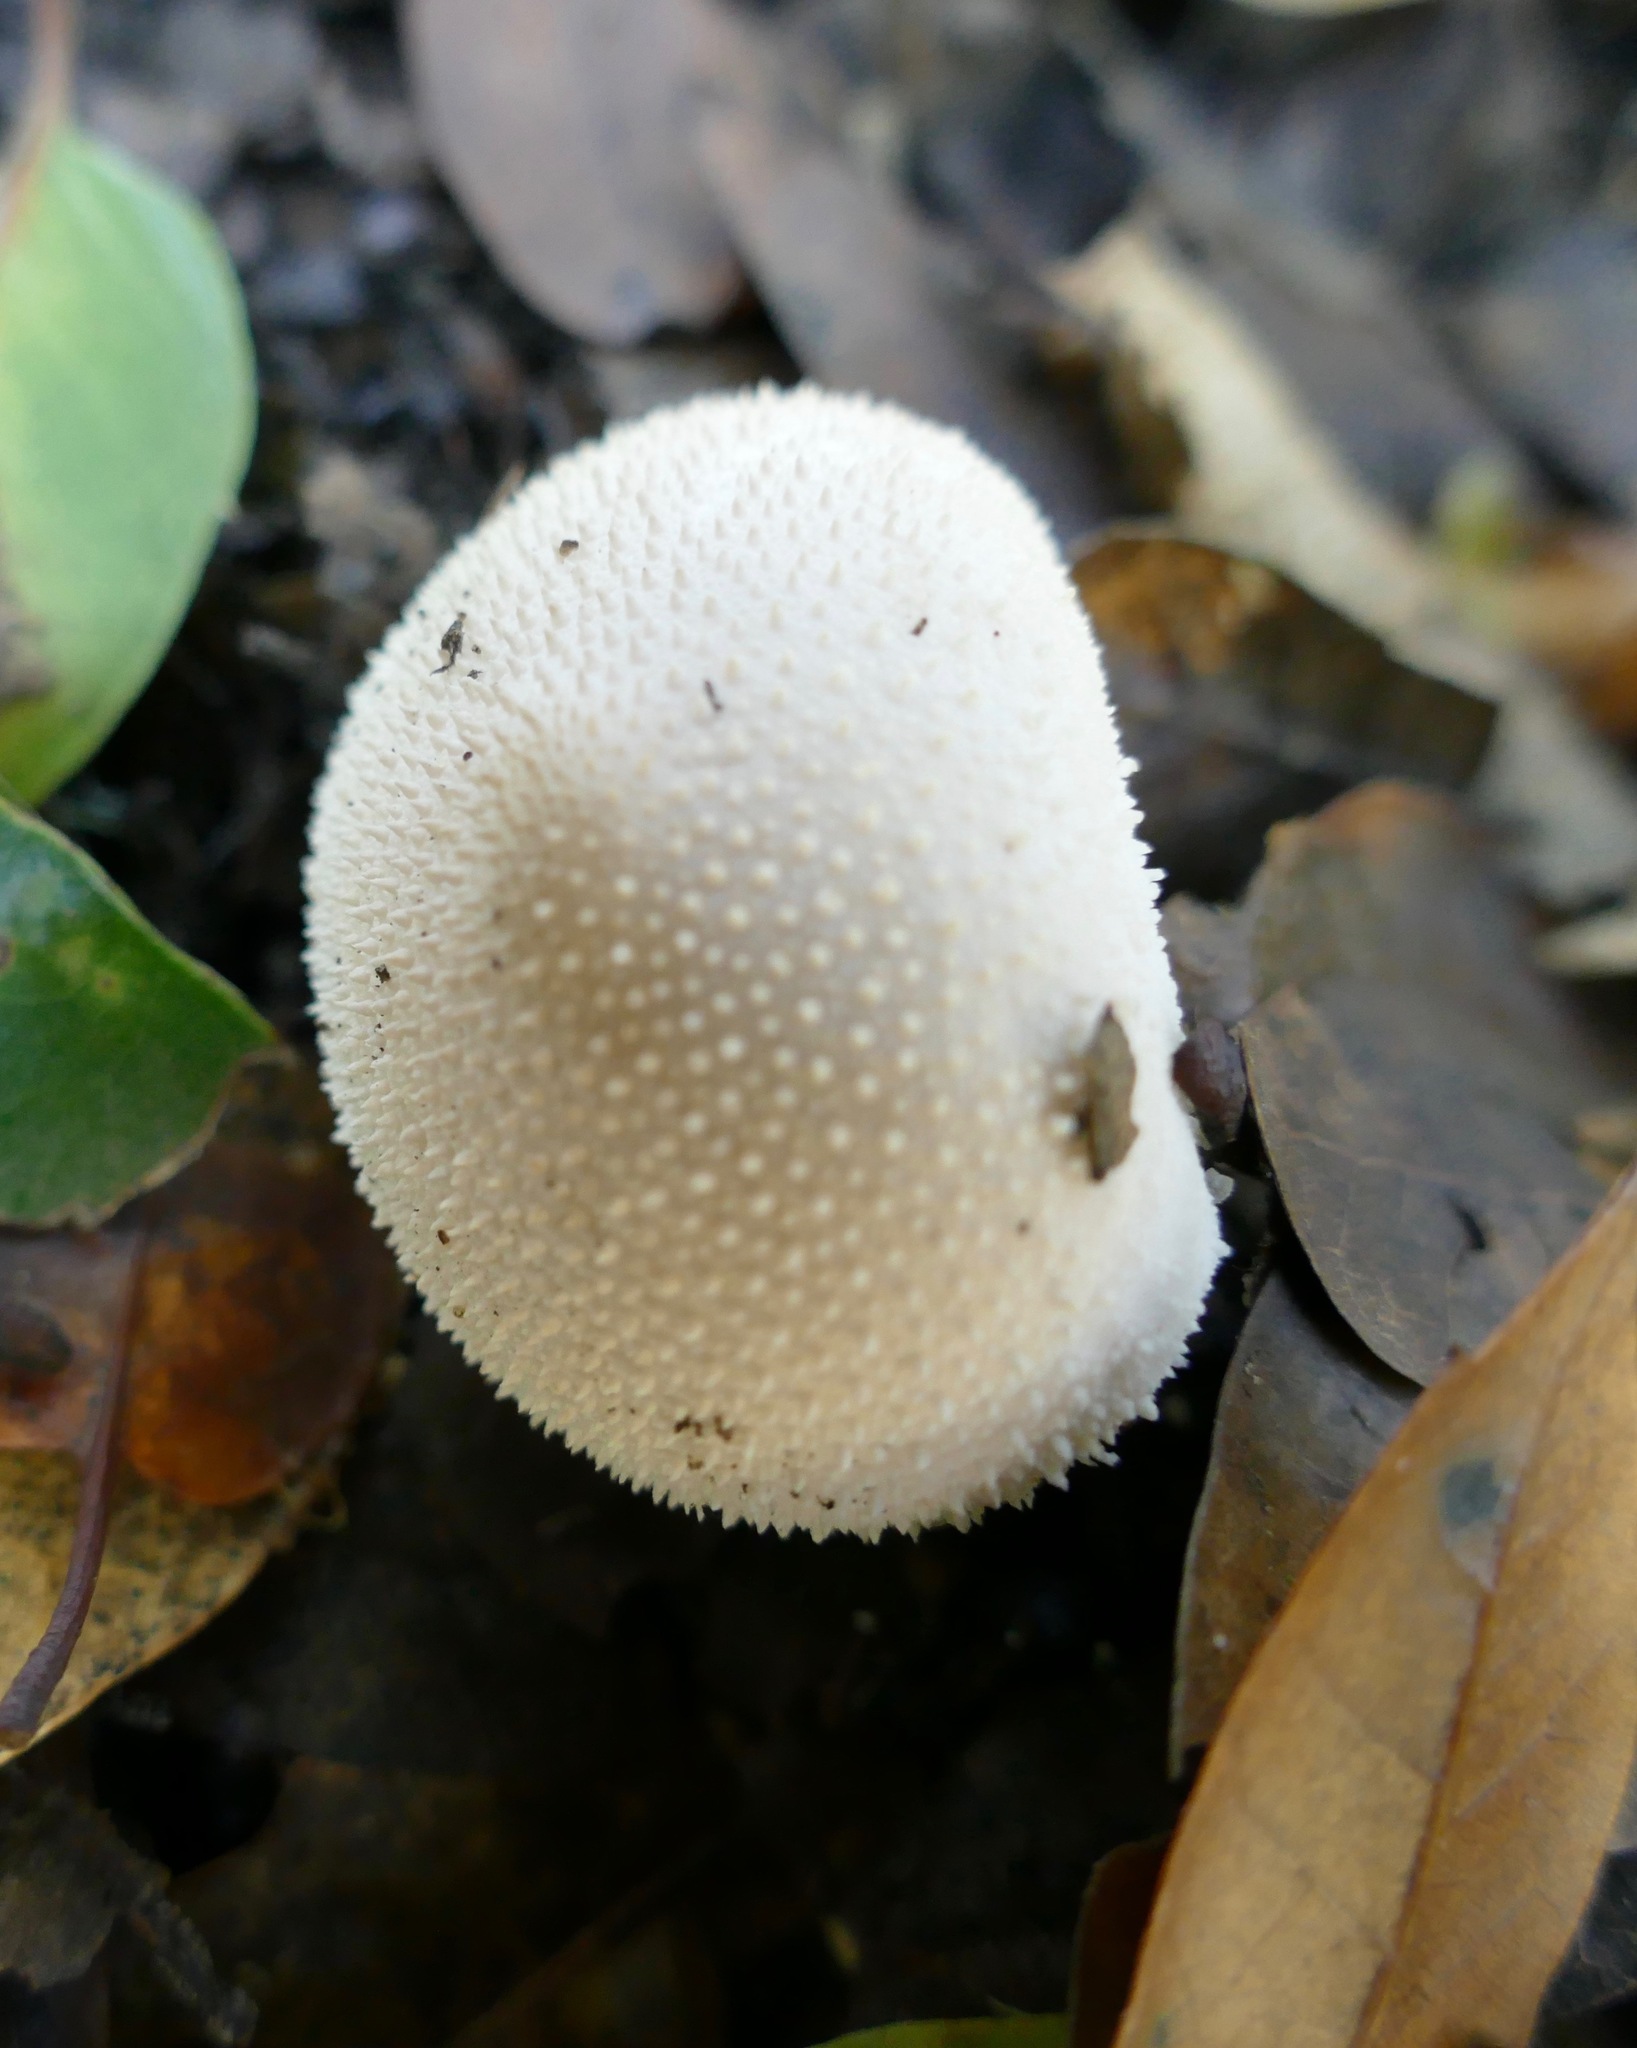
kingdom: Fungi
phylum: Basidiomycota
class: Agaricomycetes
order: Agaricales
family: Lycoperdaceae
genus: Lycoperdon
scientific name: Lycoperdon perlatum
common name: Common puffball
